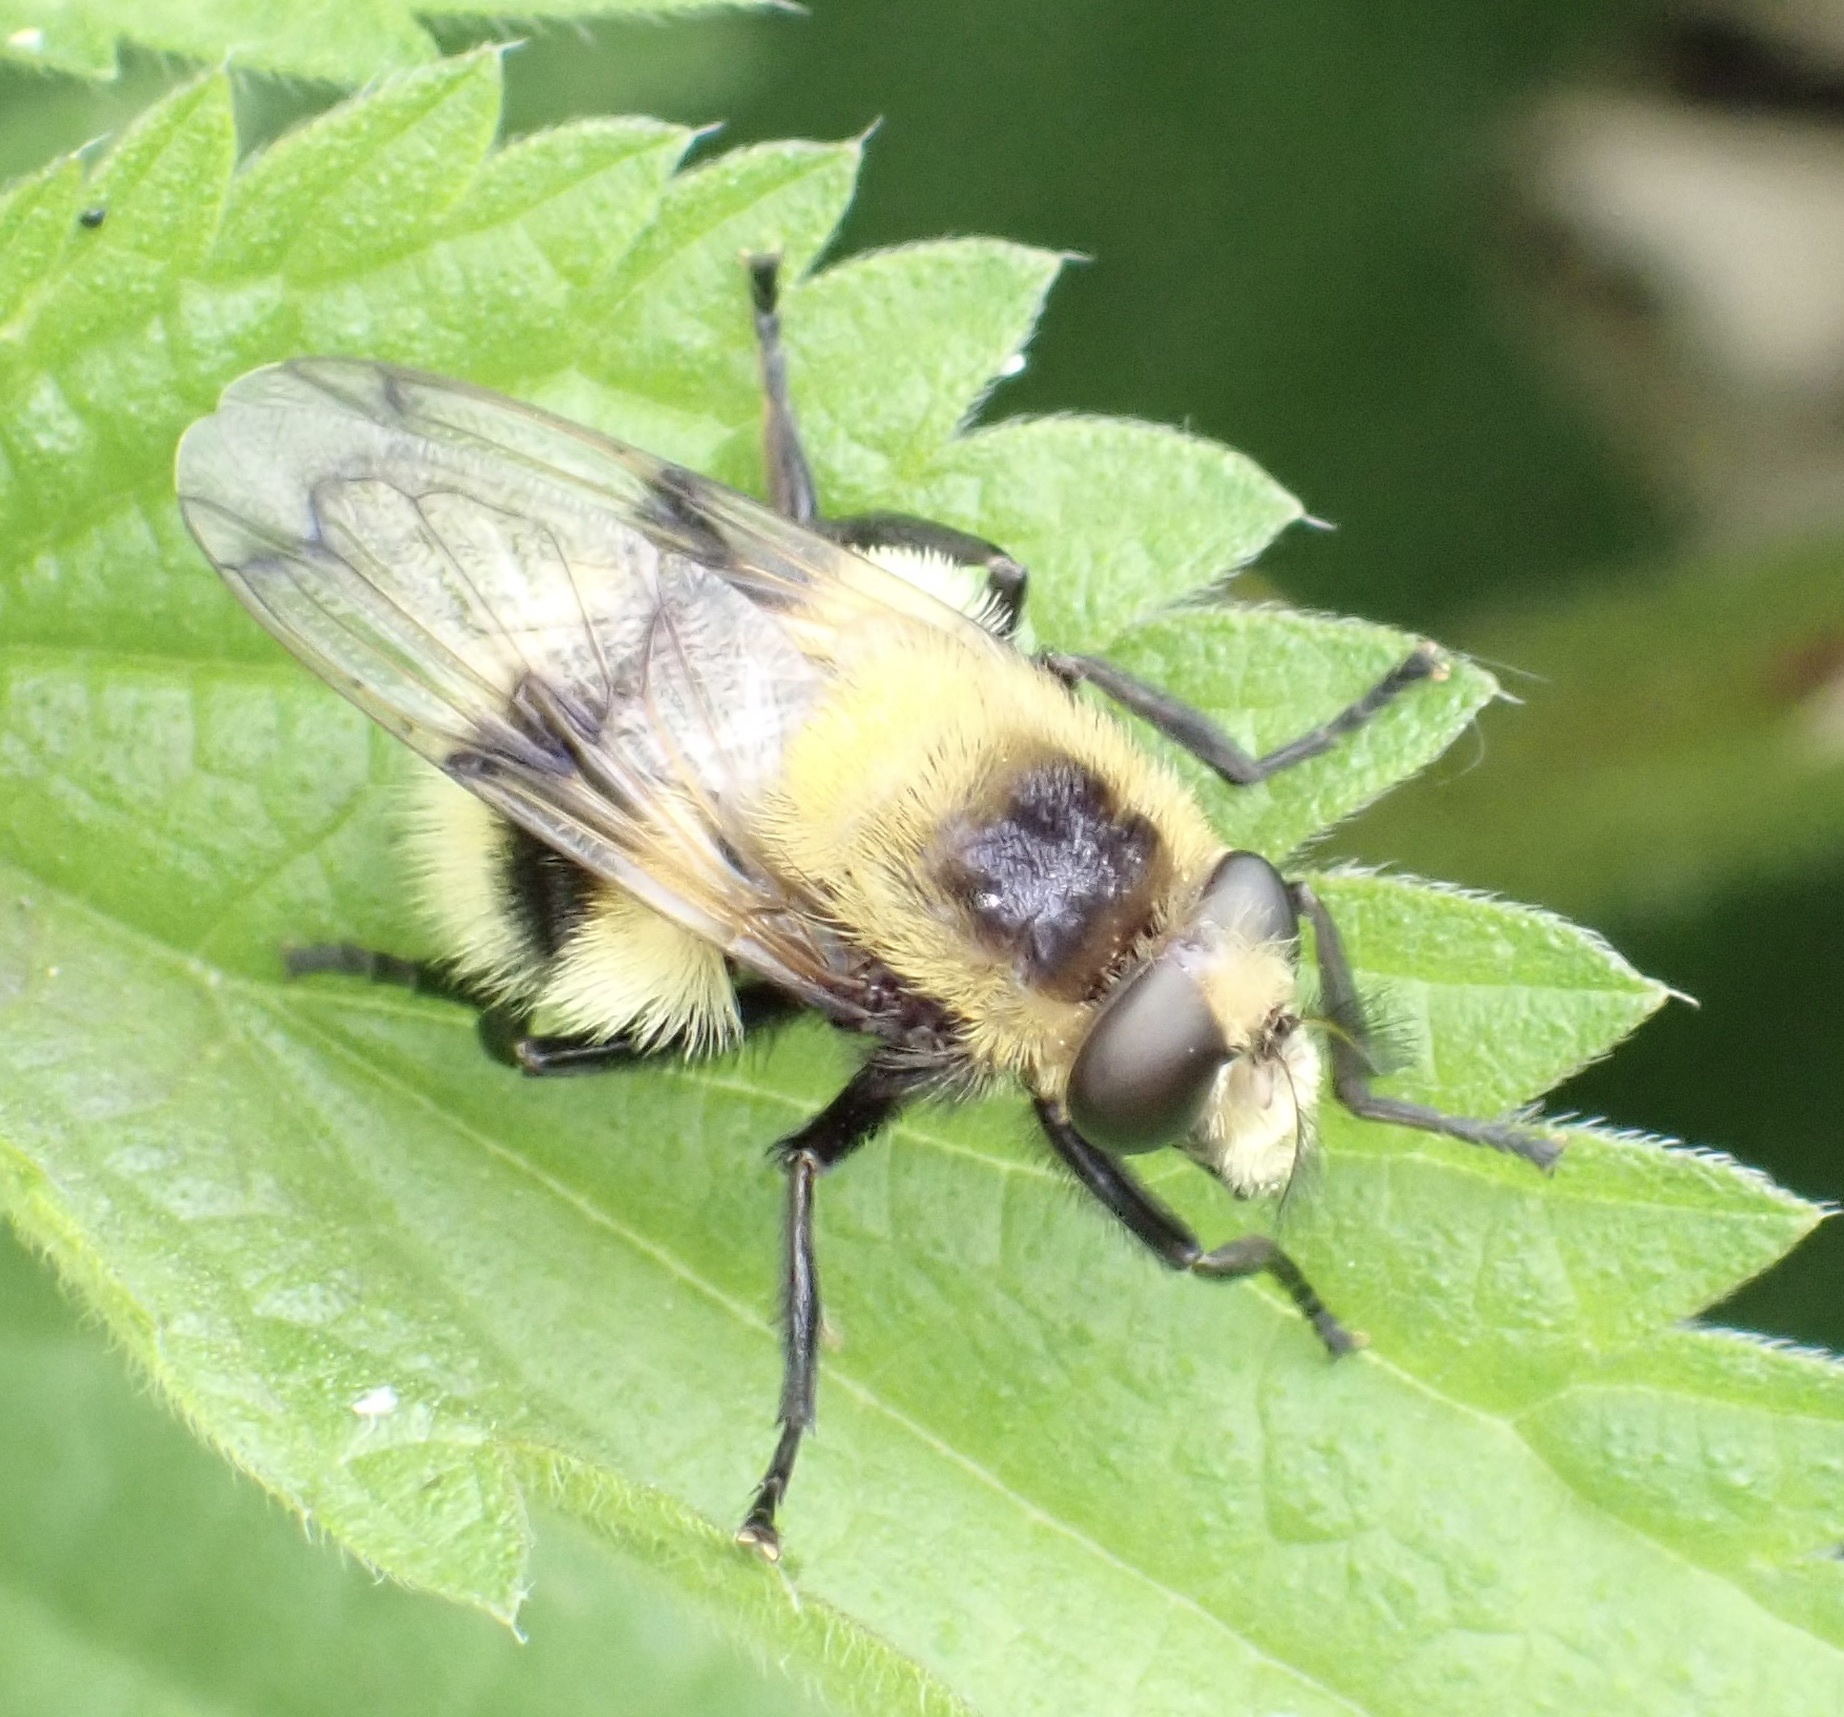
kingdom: Animalia
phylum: Arthropoda
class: Insecta
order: Diptera
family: Syrphidae
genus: Volucella
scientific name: Volucella bombylans
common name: Bumble bee hover fly
